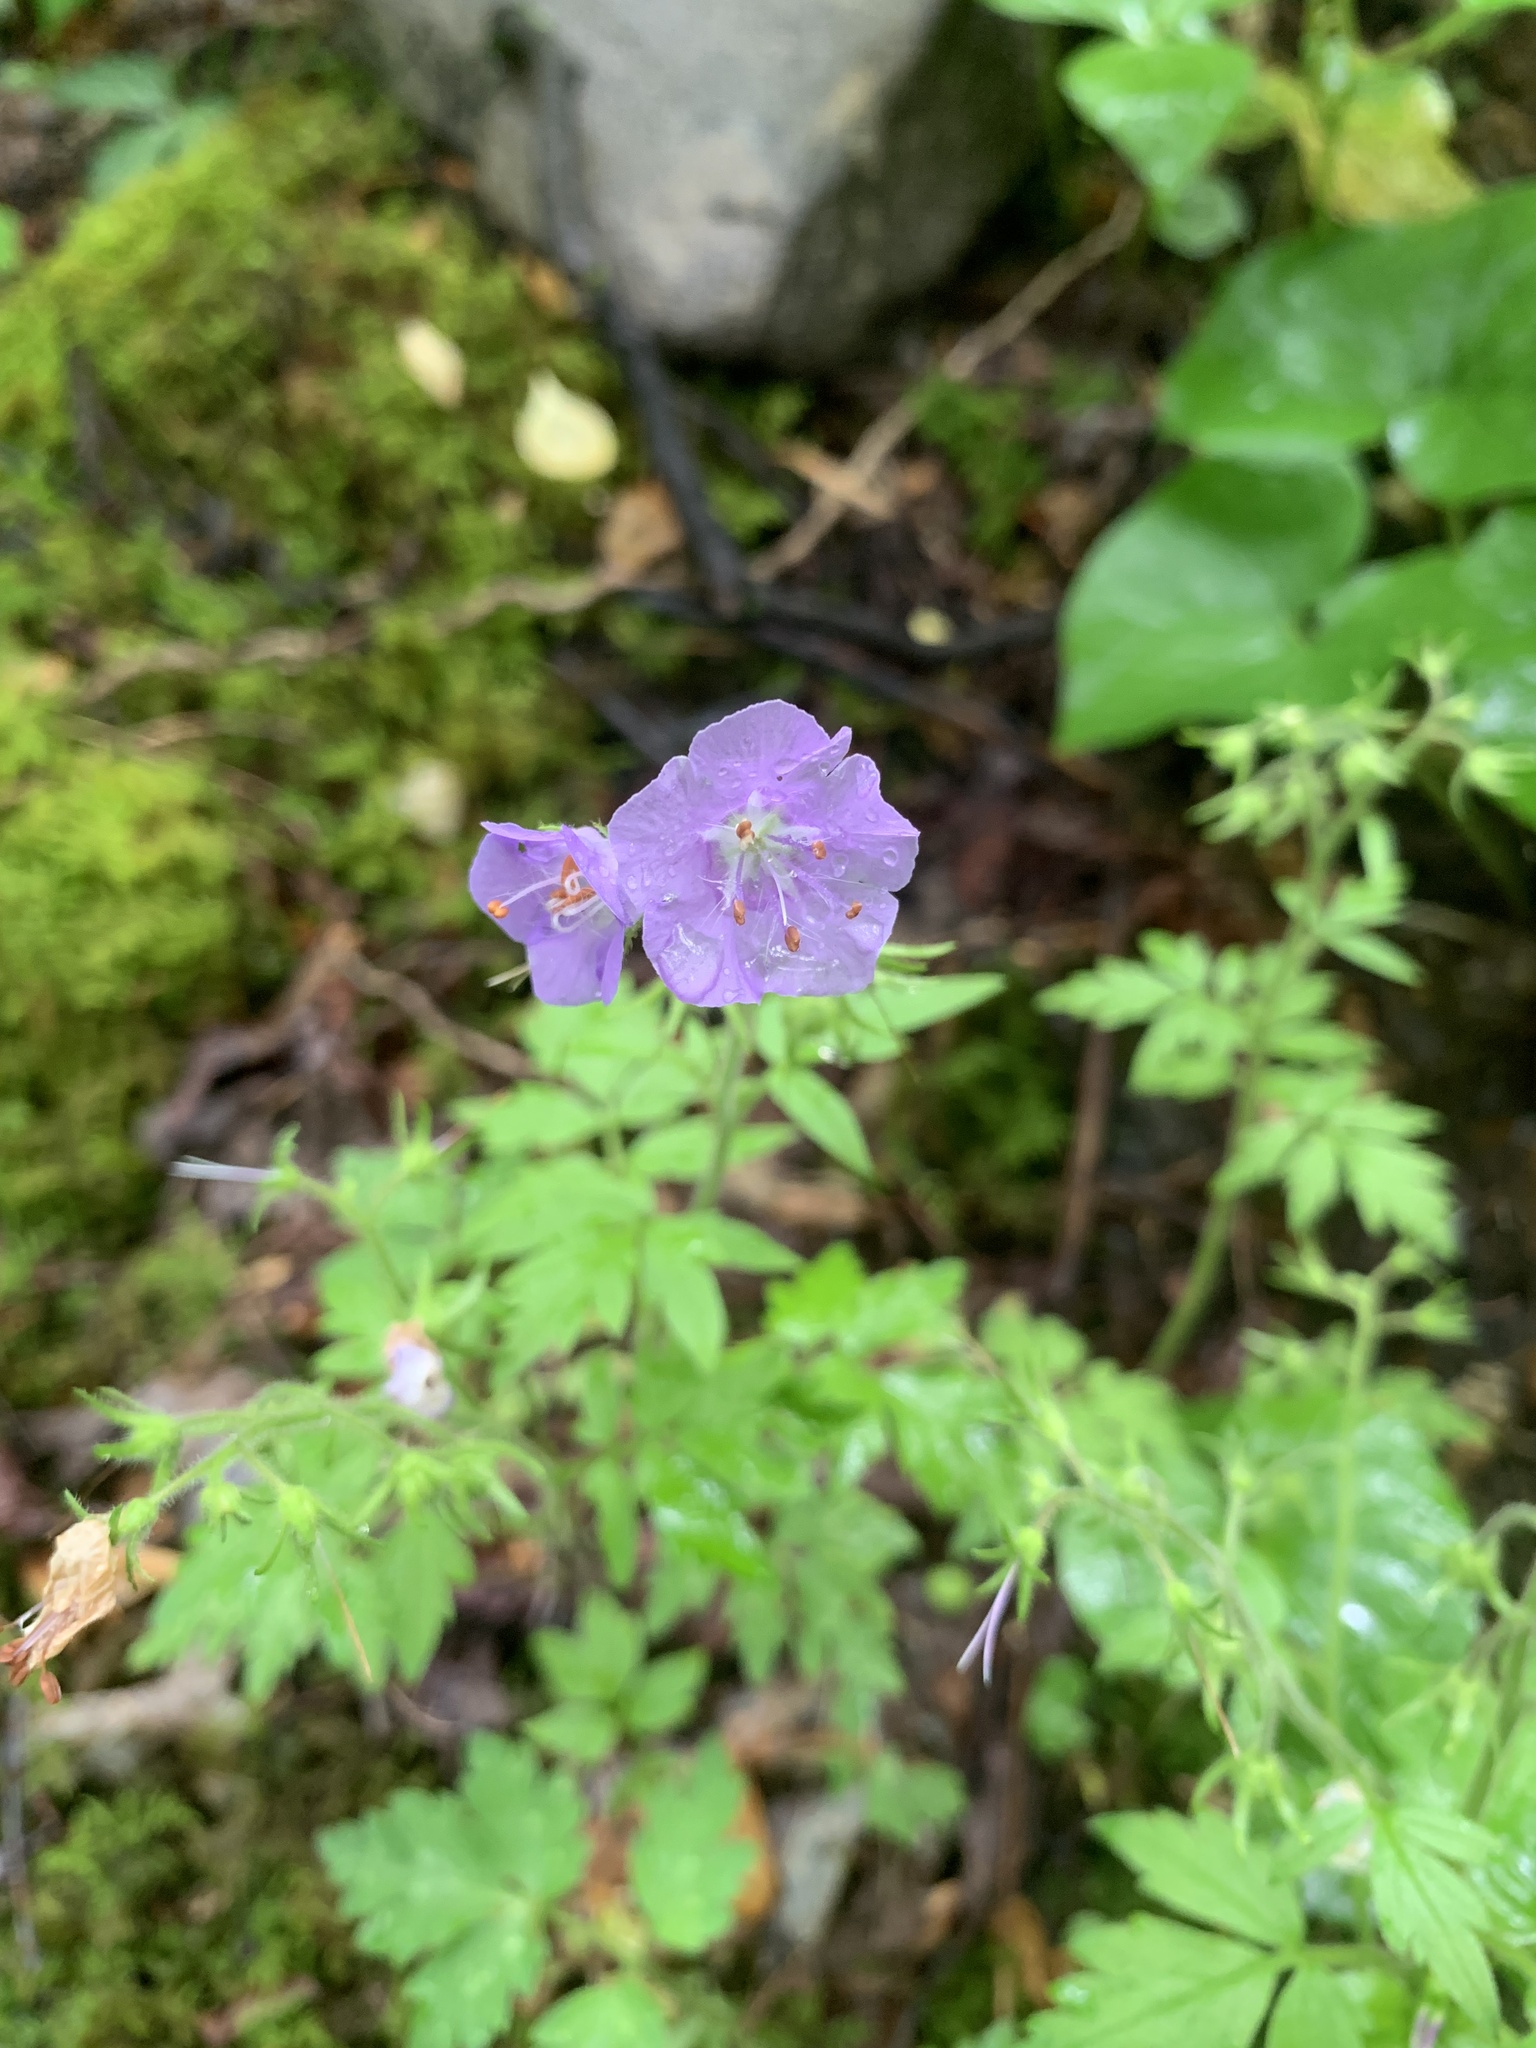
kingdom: Plantae
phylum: Tracheophyta
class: Magnoliopsida
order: Boraginales
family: Hydrophyllaceae
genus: Phacelia
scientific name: Phacelia bipinnatifida
